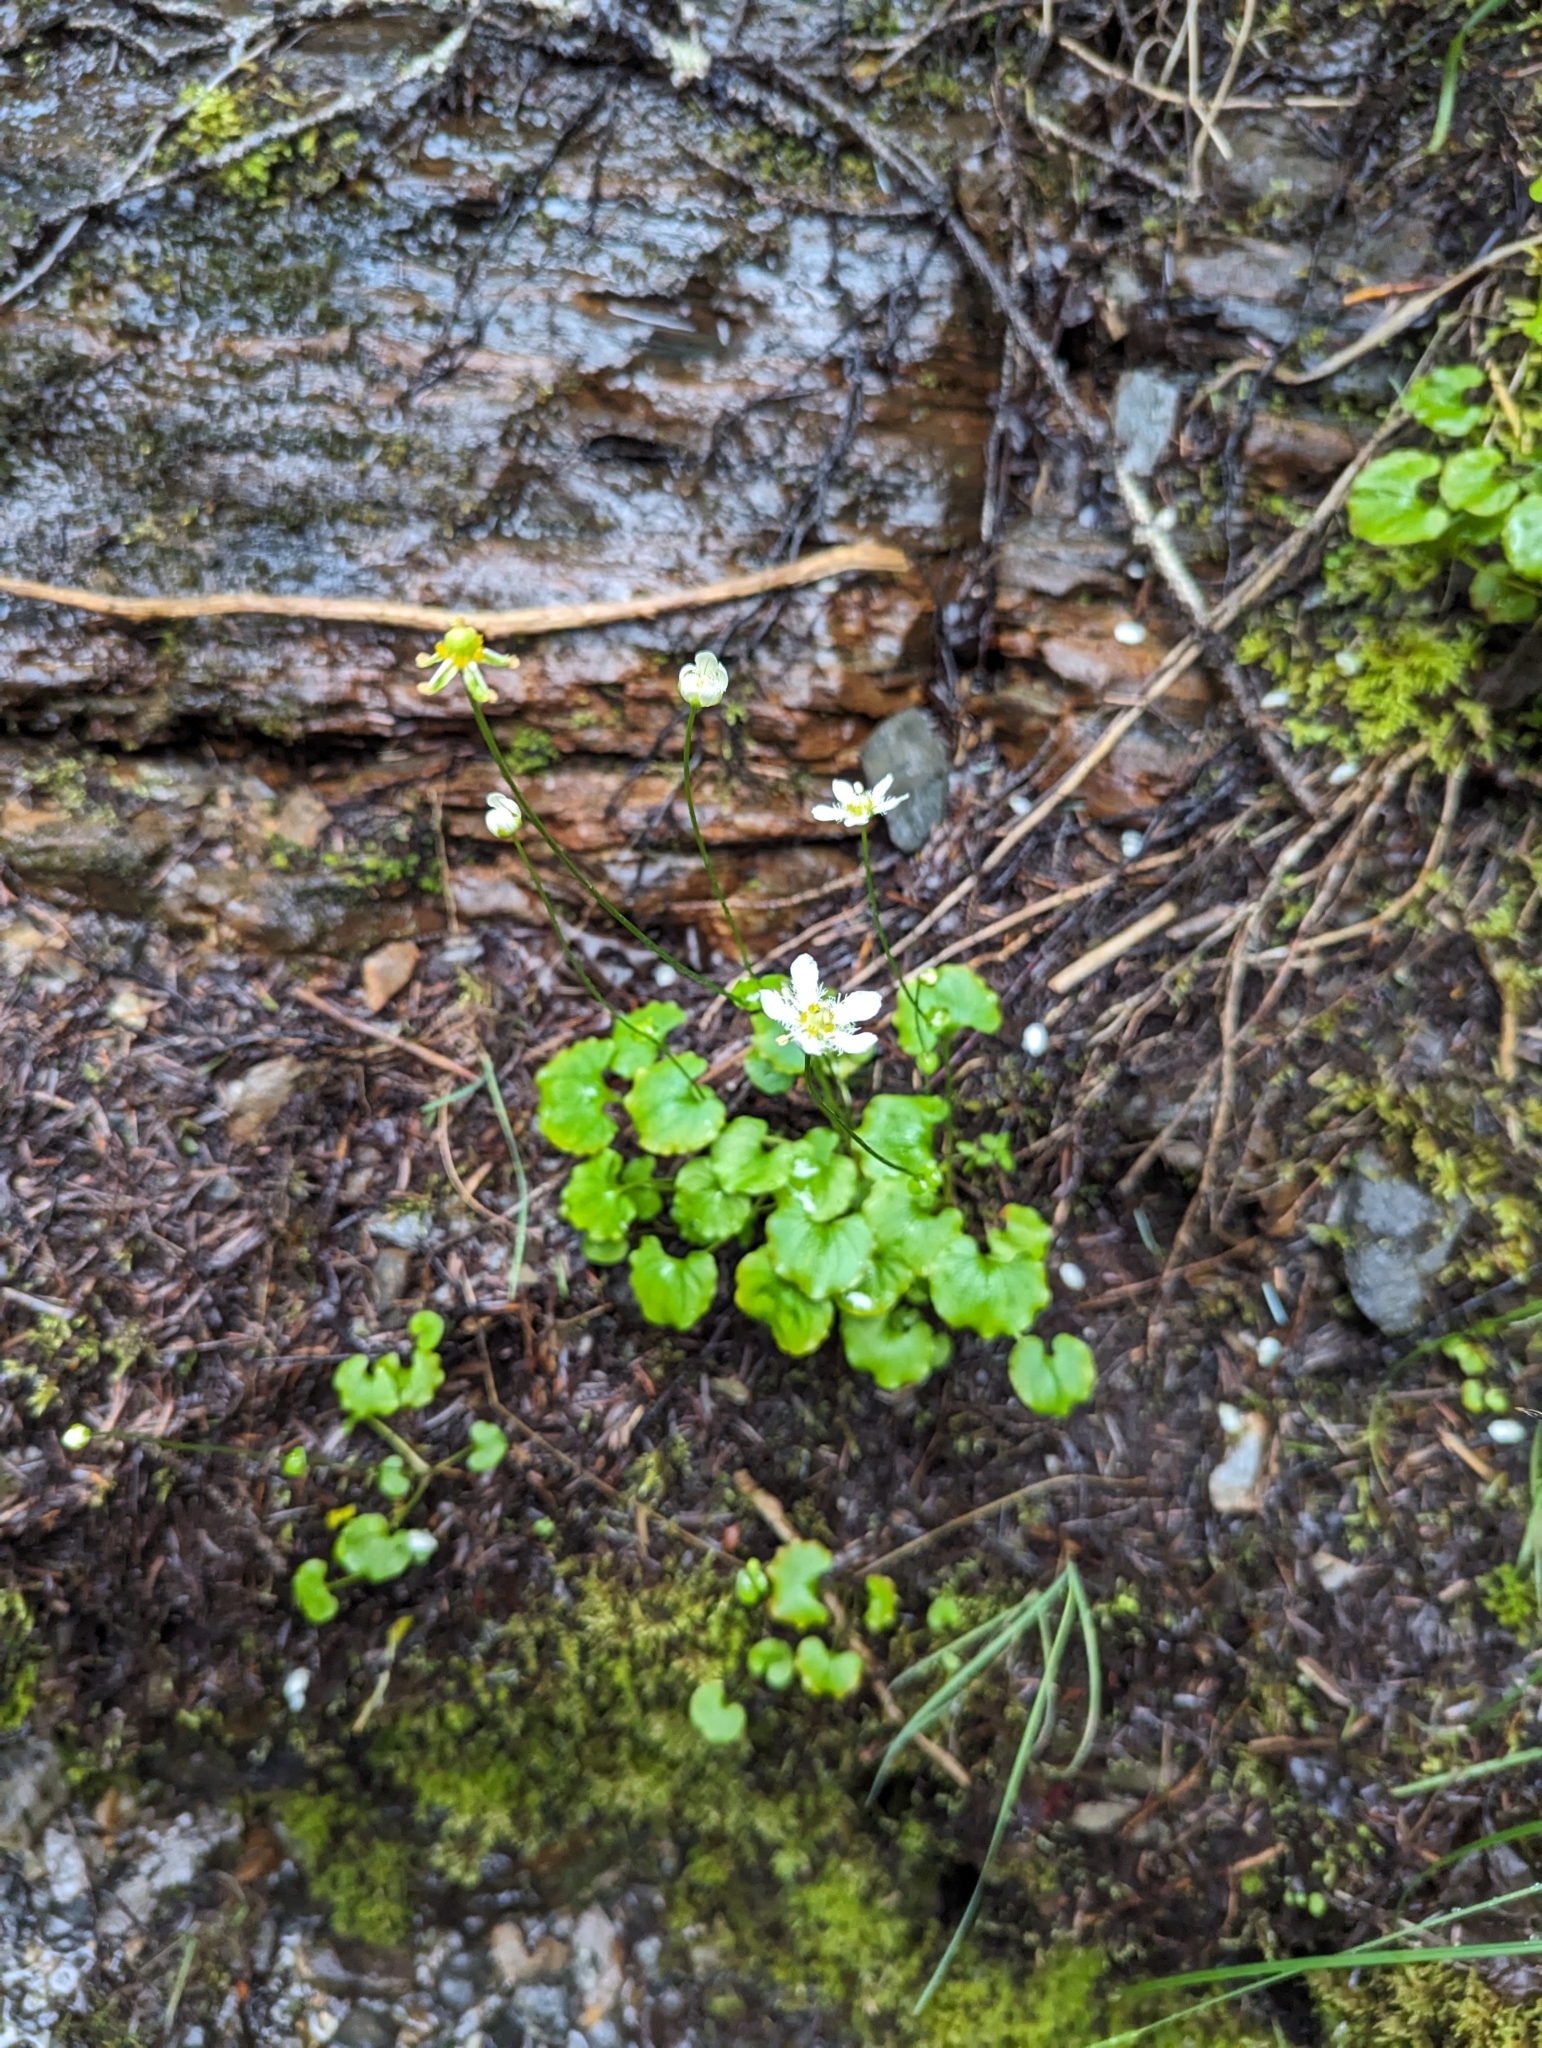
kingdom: Plantae
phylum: Tracheophyta
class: Magnoliopsida
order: Celastrales
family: Parnassiaceae
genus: Parnassia
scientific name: Parnassia fimbriata
